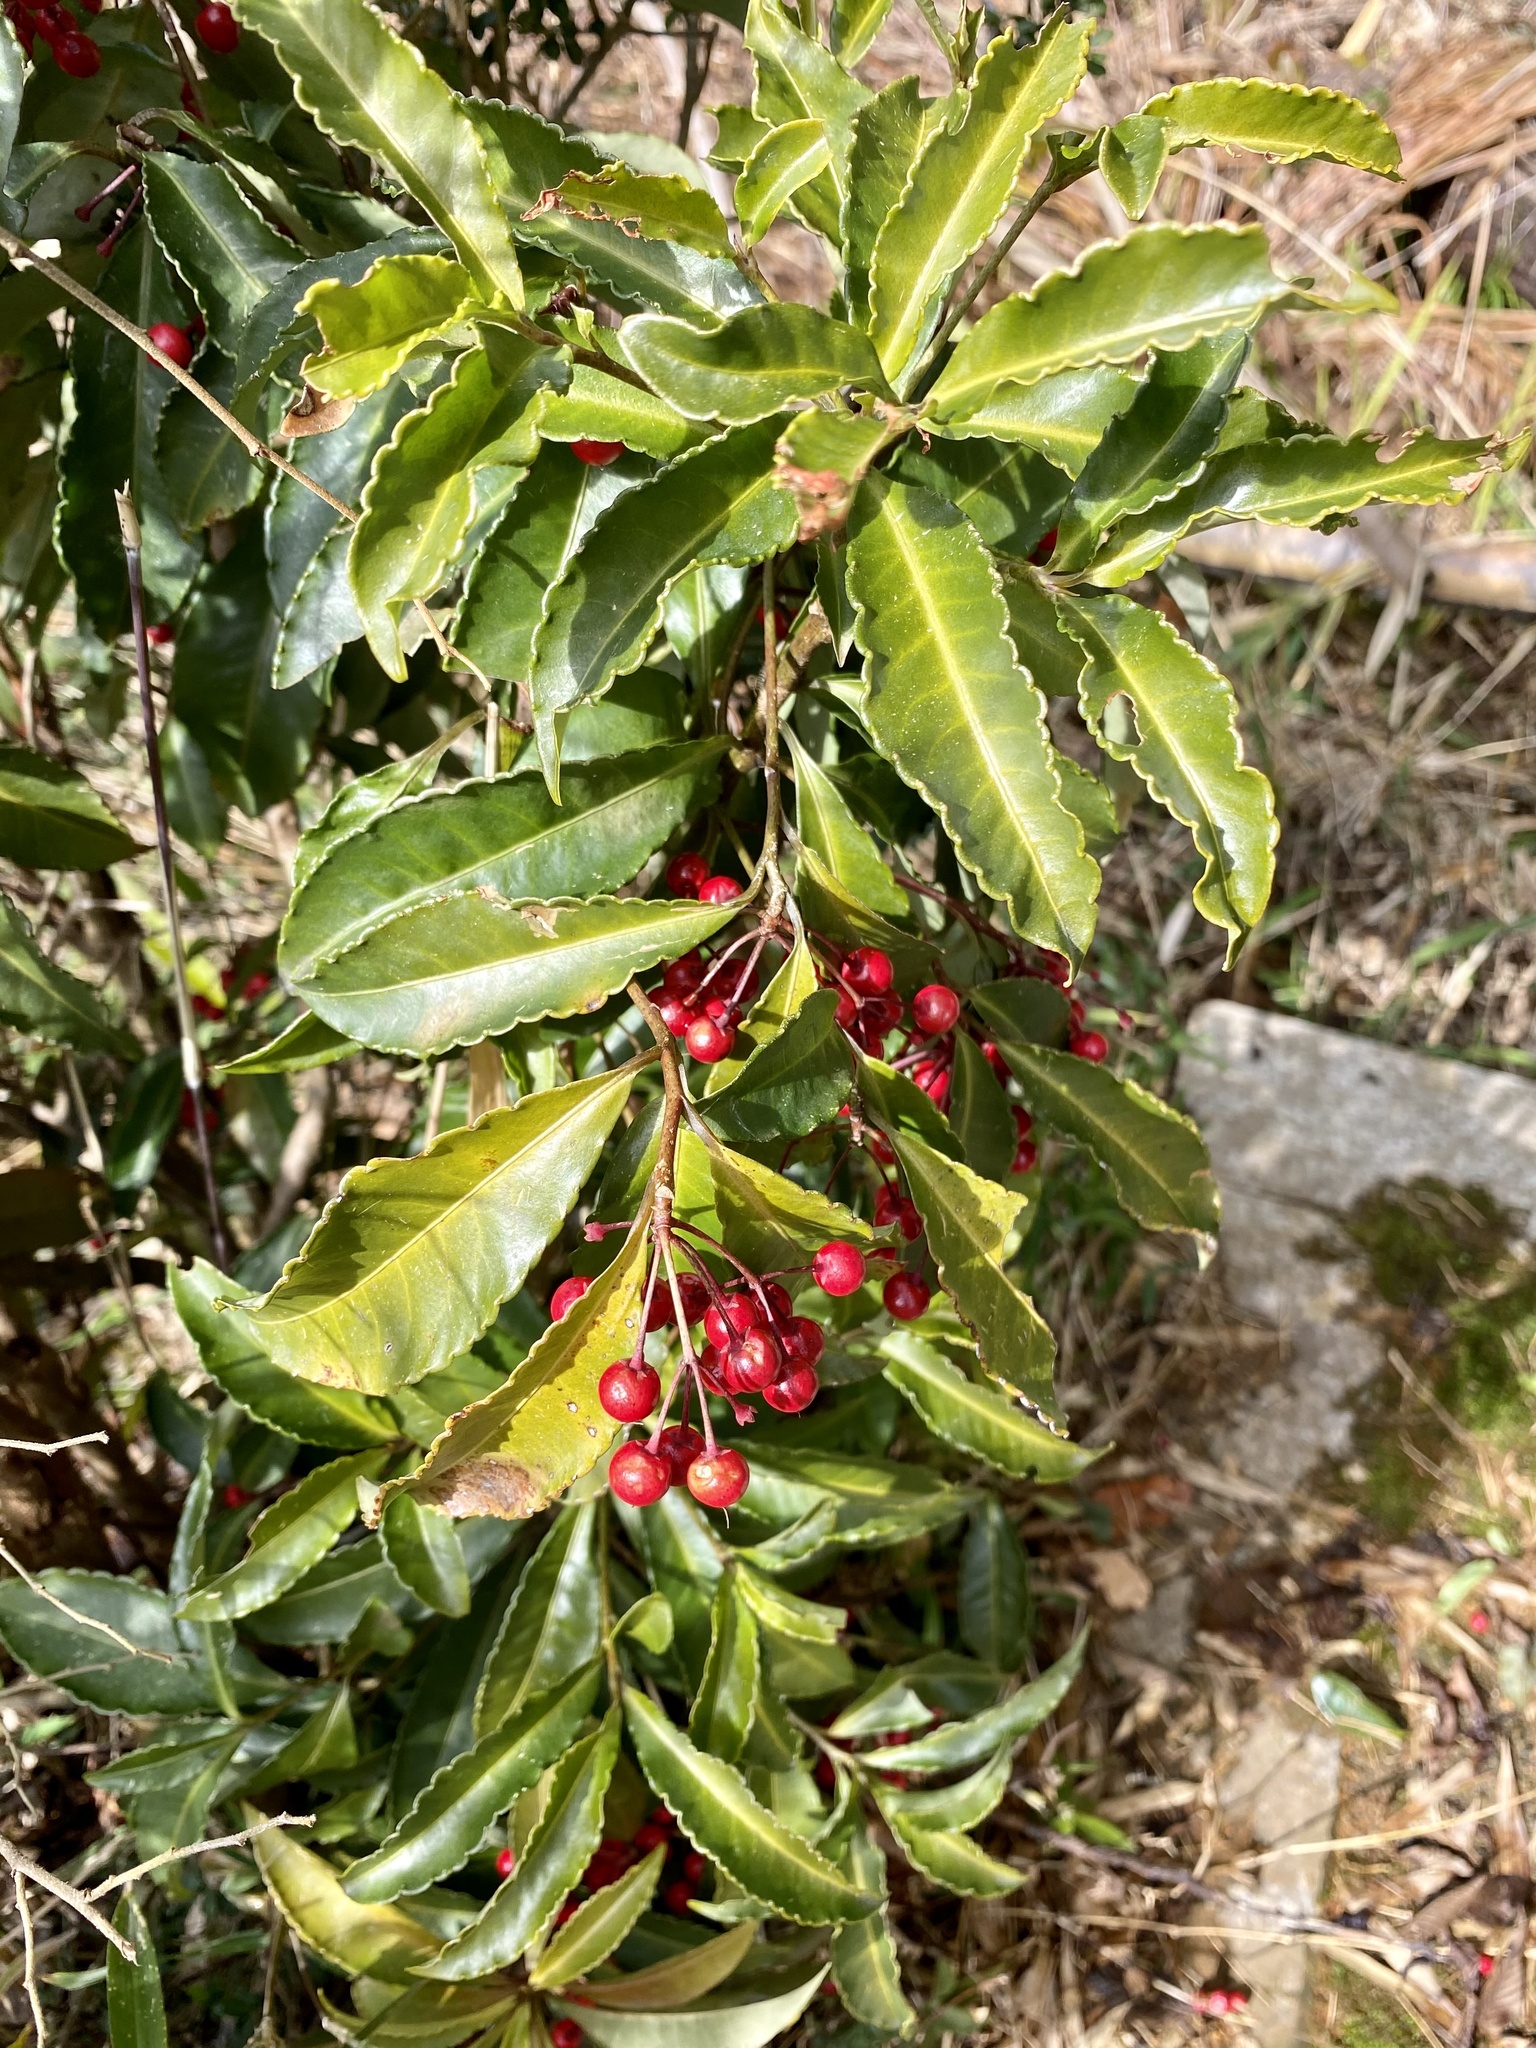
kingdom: Plantae
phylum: Tracheophyta
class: Magnoliopsida
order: Ericales
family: Primulaceae
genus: Ardisia
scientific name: Ardisia crenata
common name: Hen's eyes
